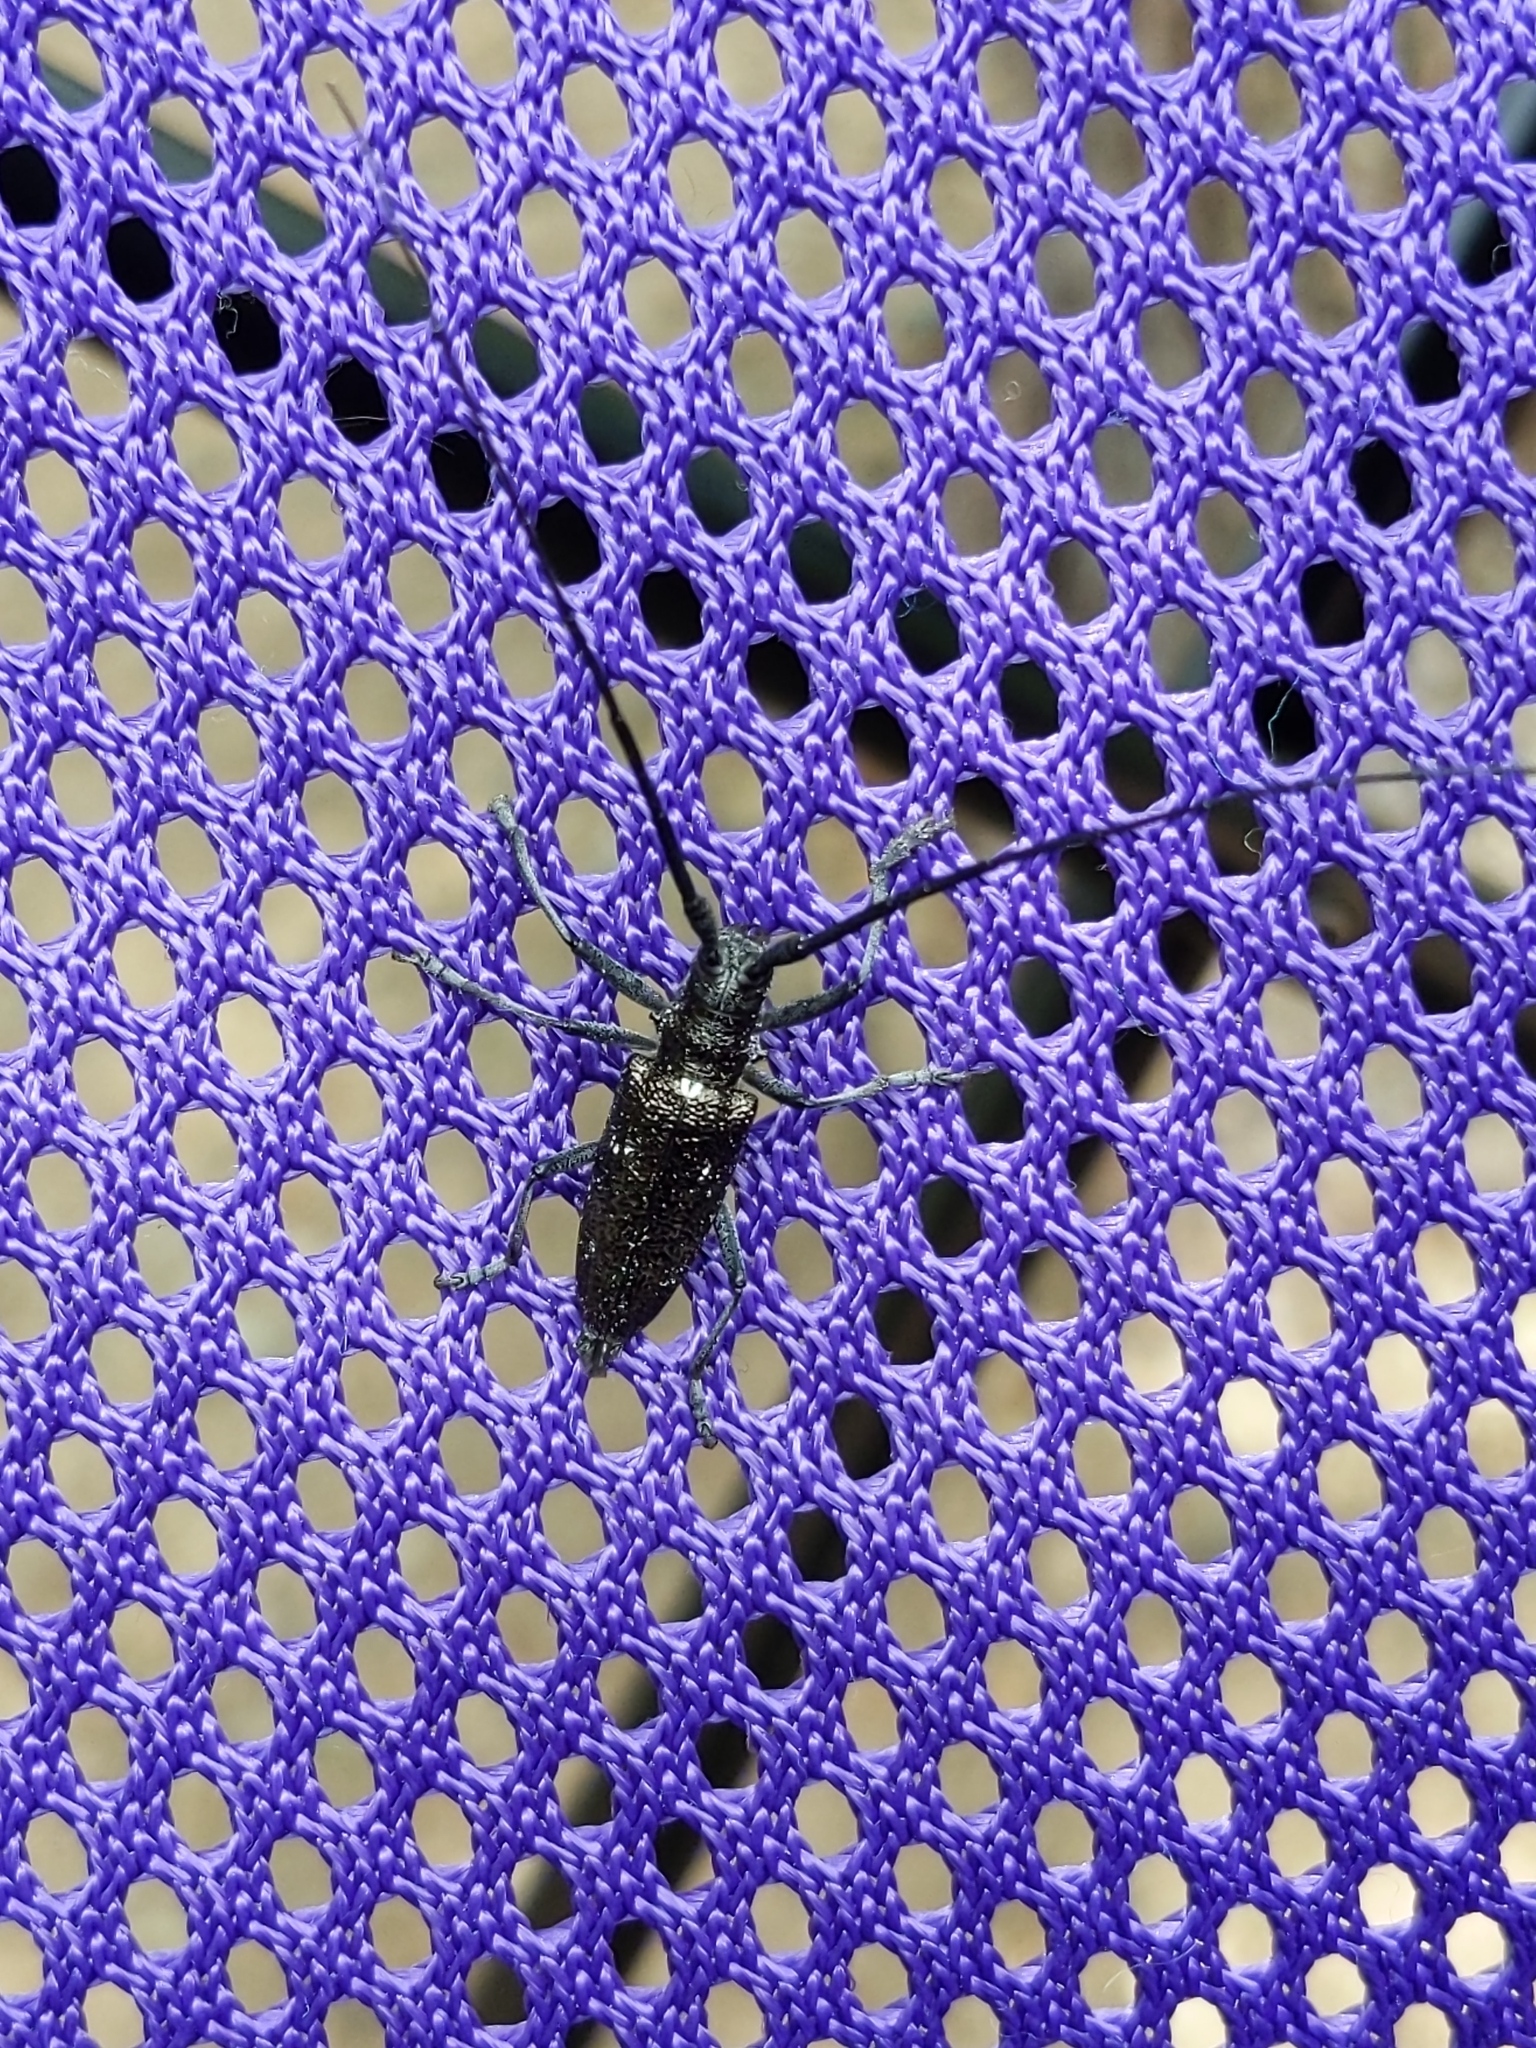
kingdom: Animalia
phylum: Arthropoda
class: Insecta
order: Coleoptera
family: Cerambycidae
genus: Monochamus
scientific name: Monochamus scutellatus
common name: White-spotted sawyer beetle
